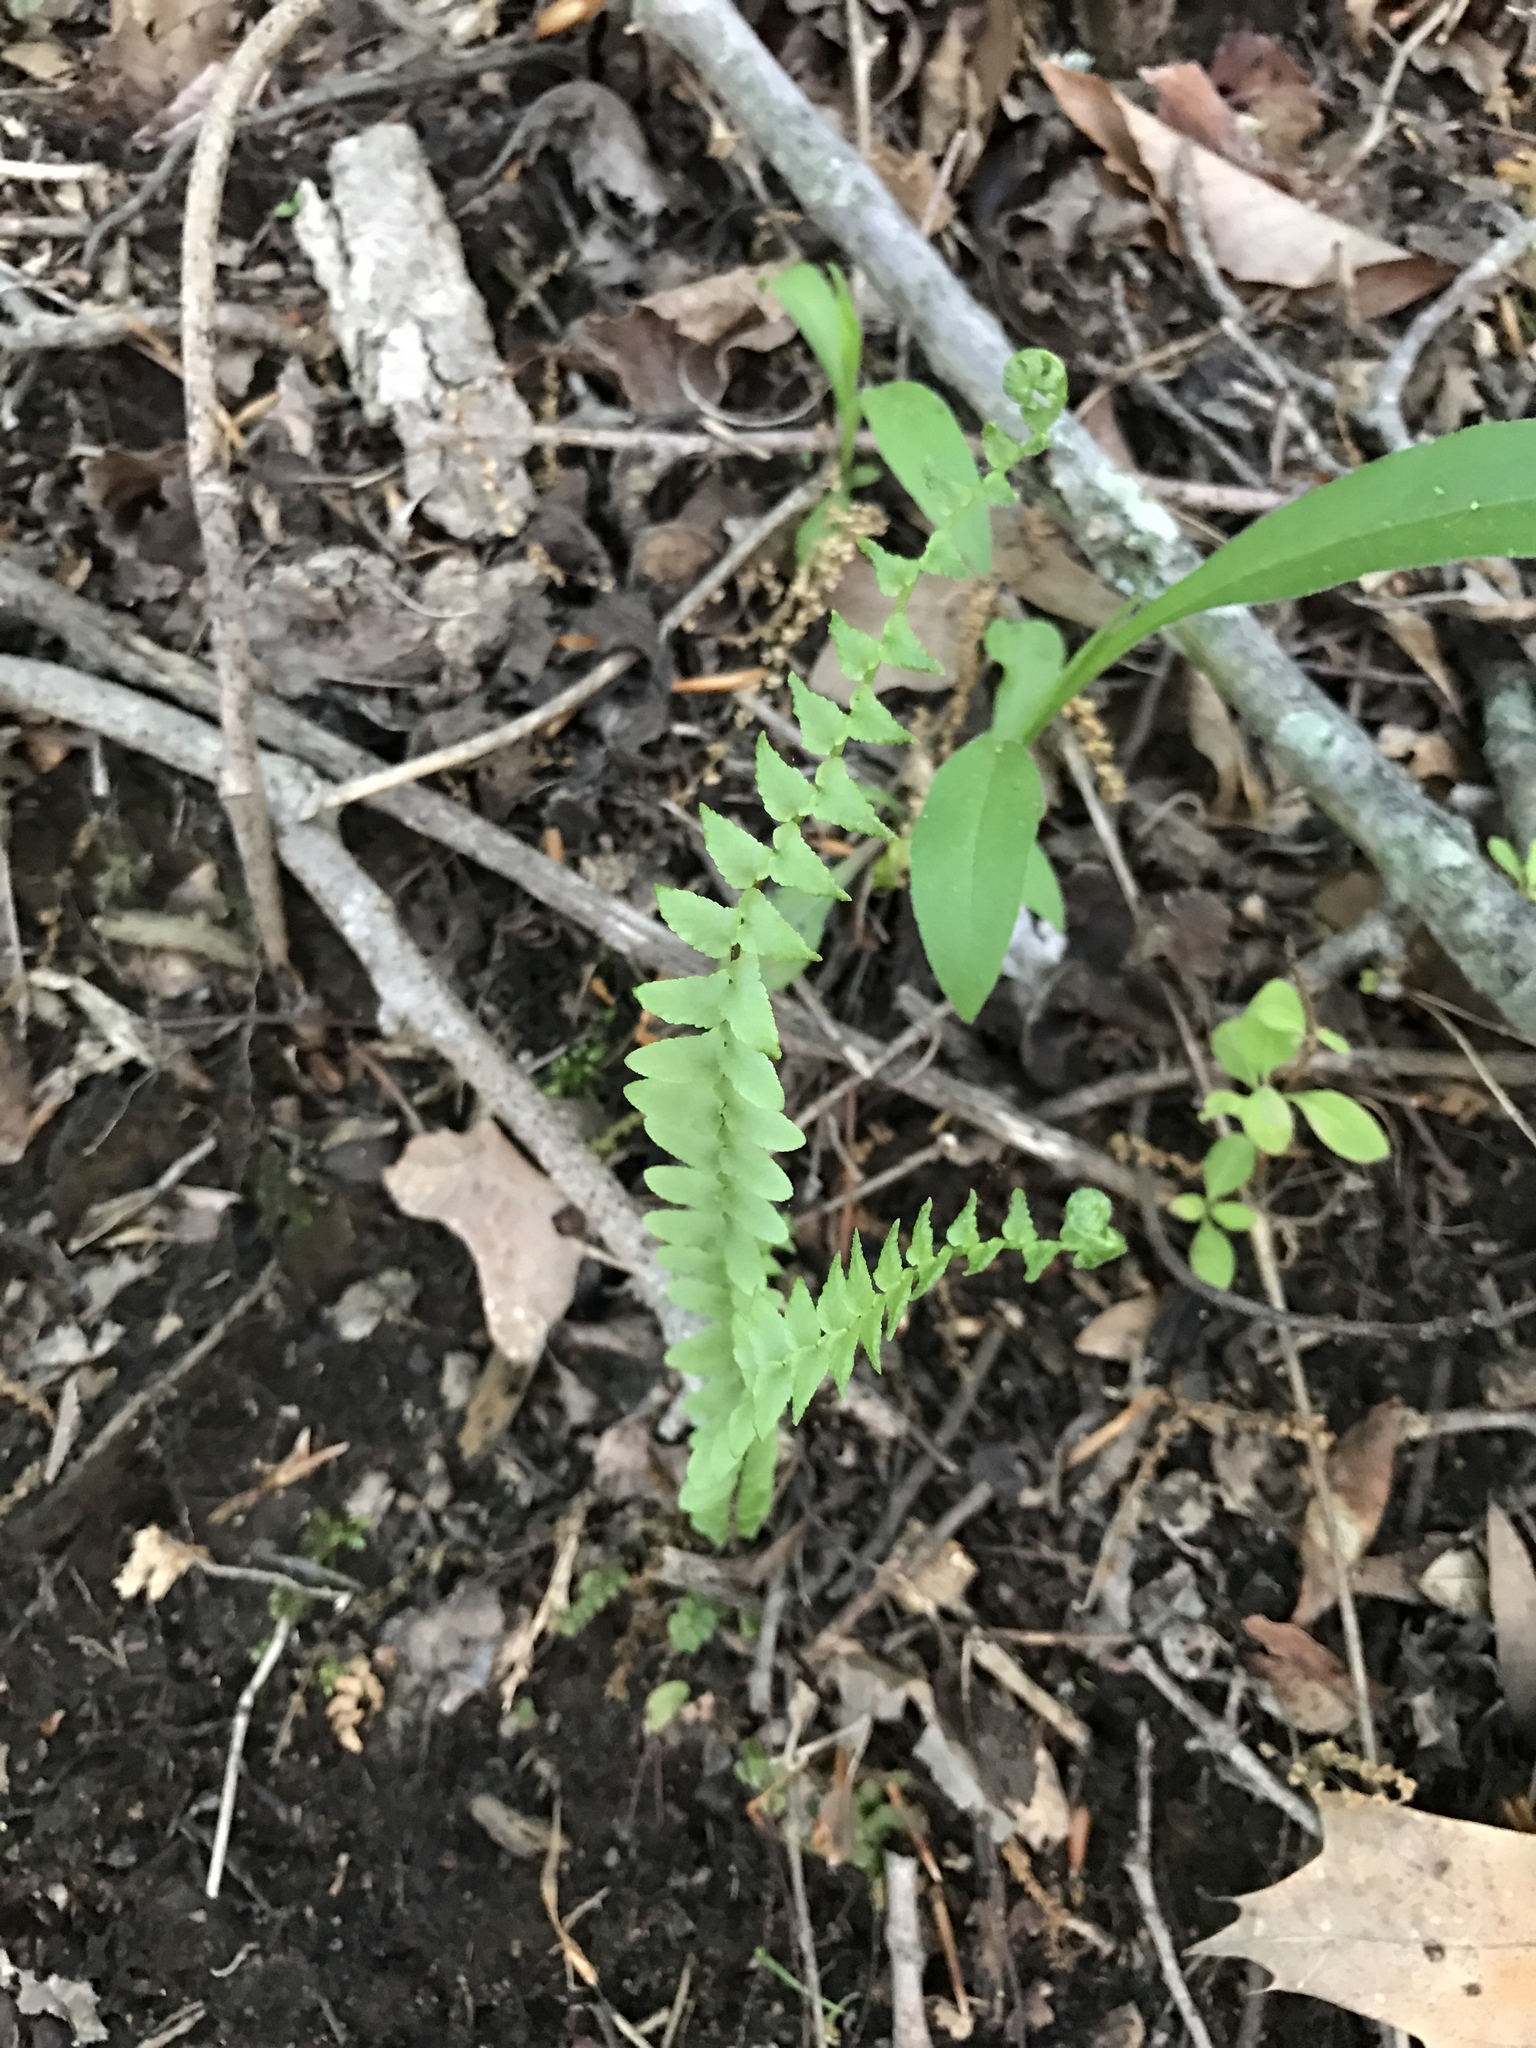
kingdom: Plantae
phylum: Tracheophyta
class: Polypodiopsida
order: Polypodiales
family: Aspleniaceae
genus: Asplenium
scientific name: Asplenium platyneuron
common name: Ebony spleenwort
